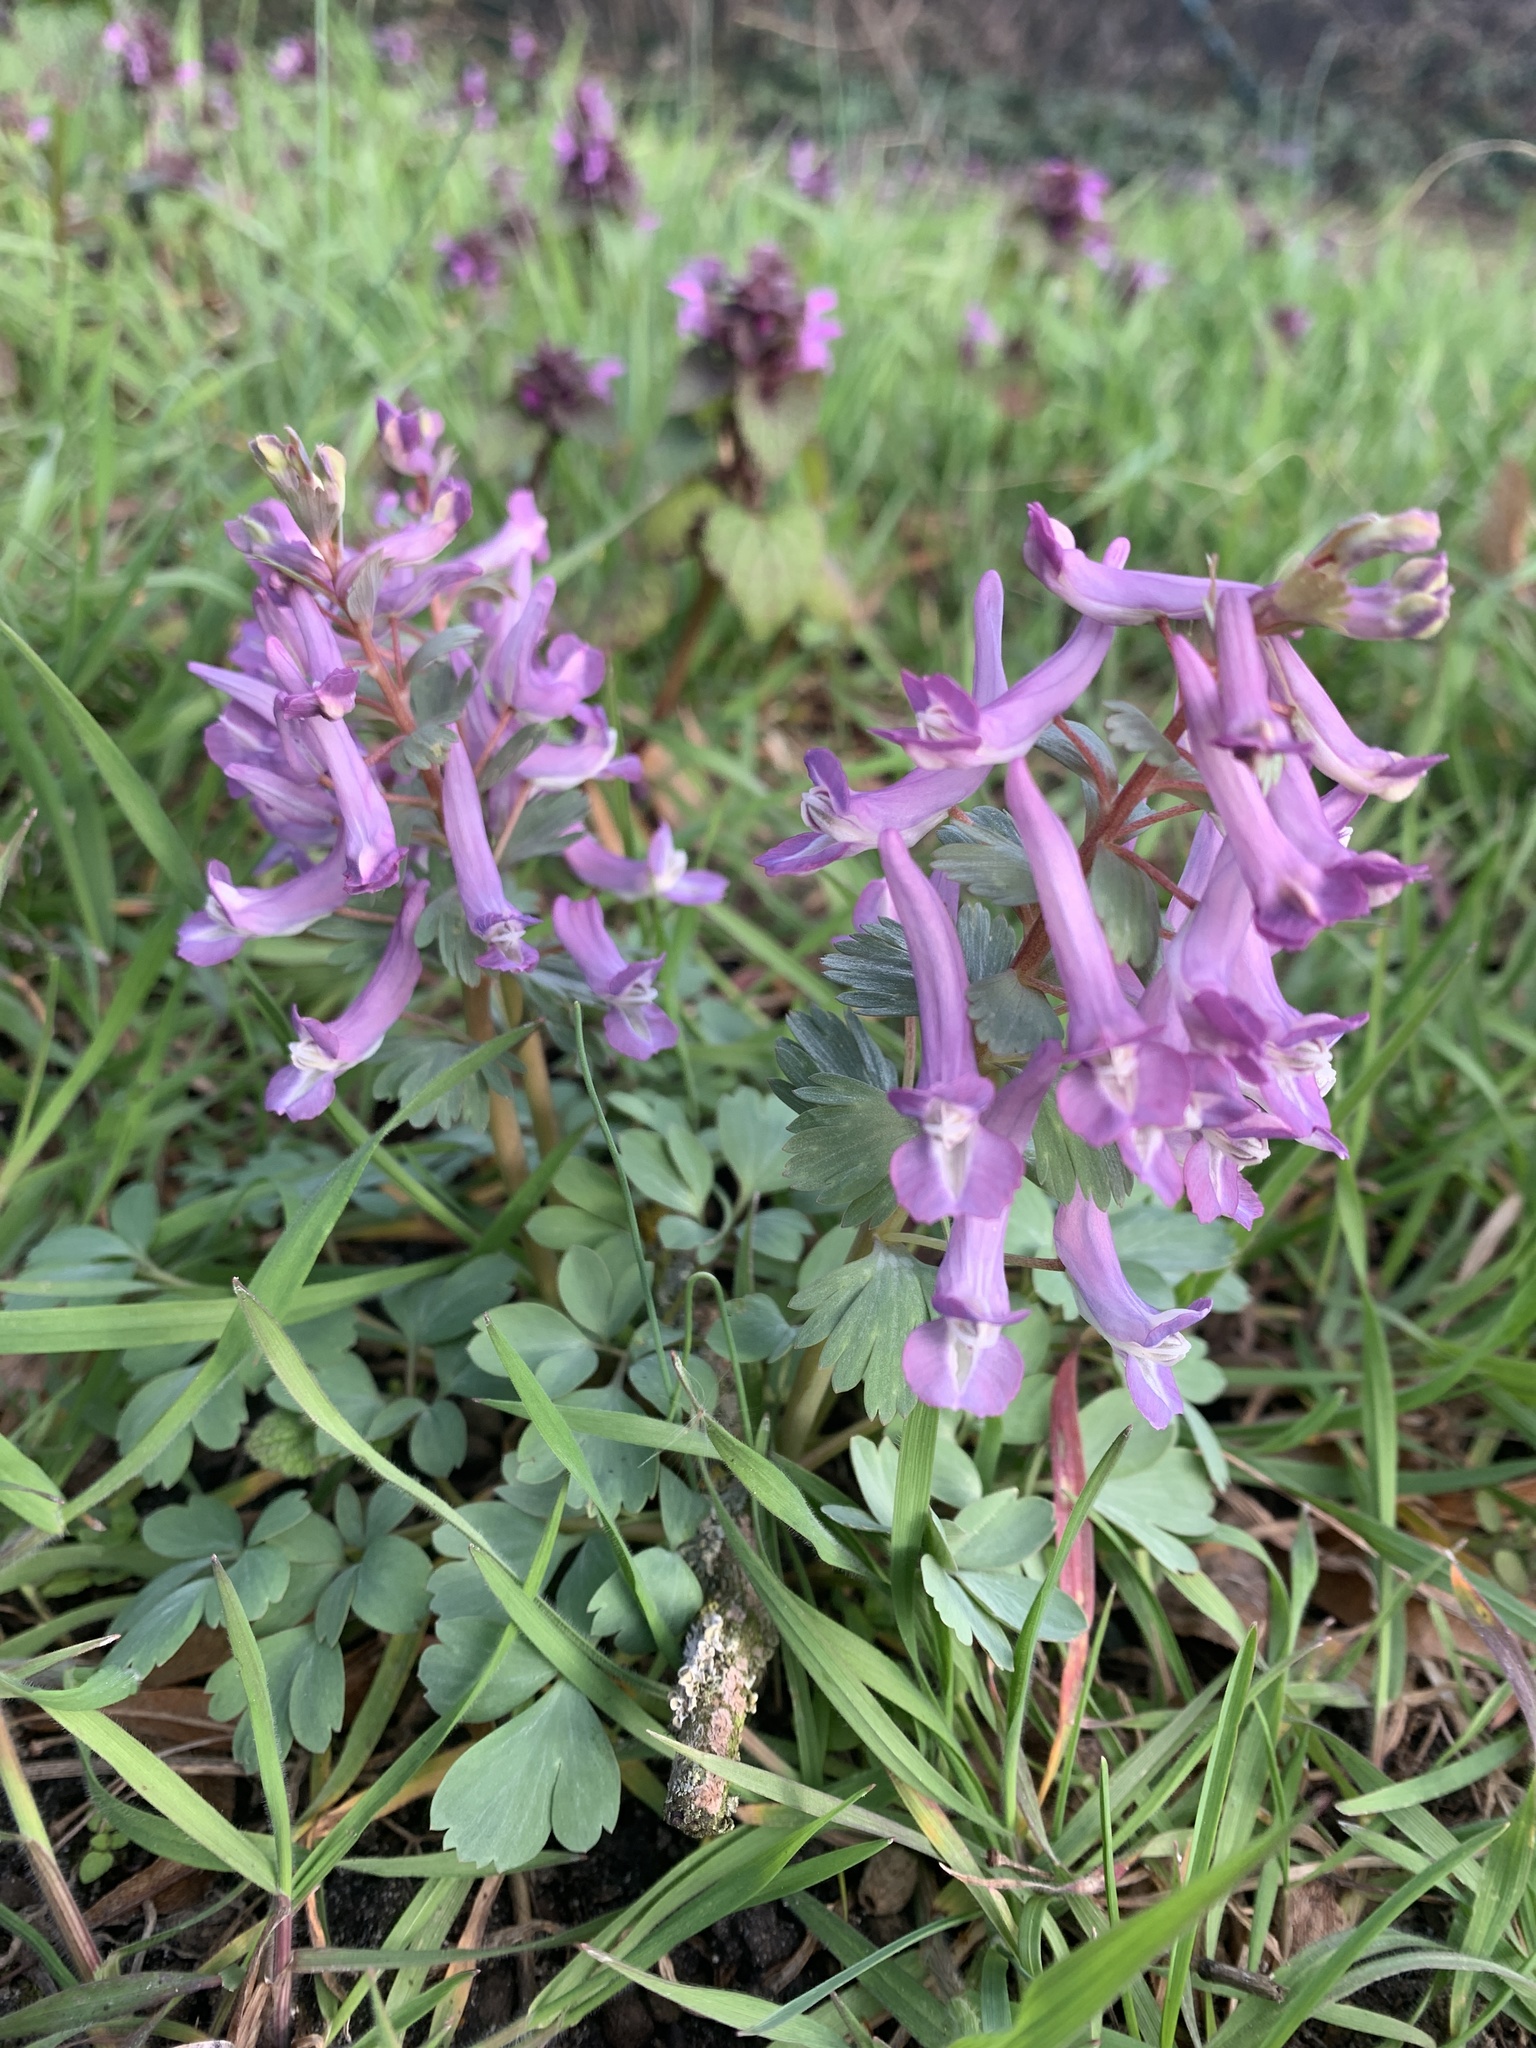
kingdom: Plantae
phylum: Tracheophyta
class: Magnoliopsida
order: Ranunculales
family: Papaveraceae
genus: Corydalis
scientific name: Corydalis solida
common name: Bird-in-a-bush
